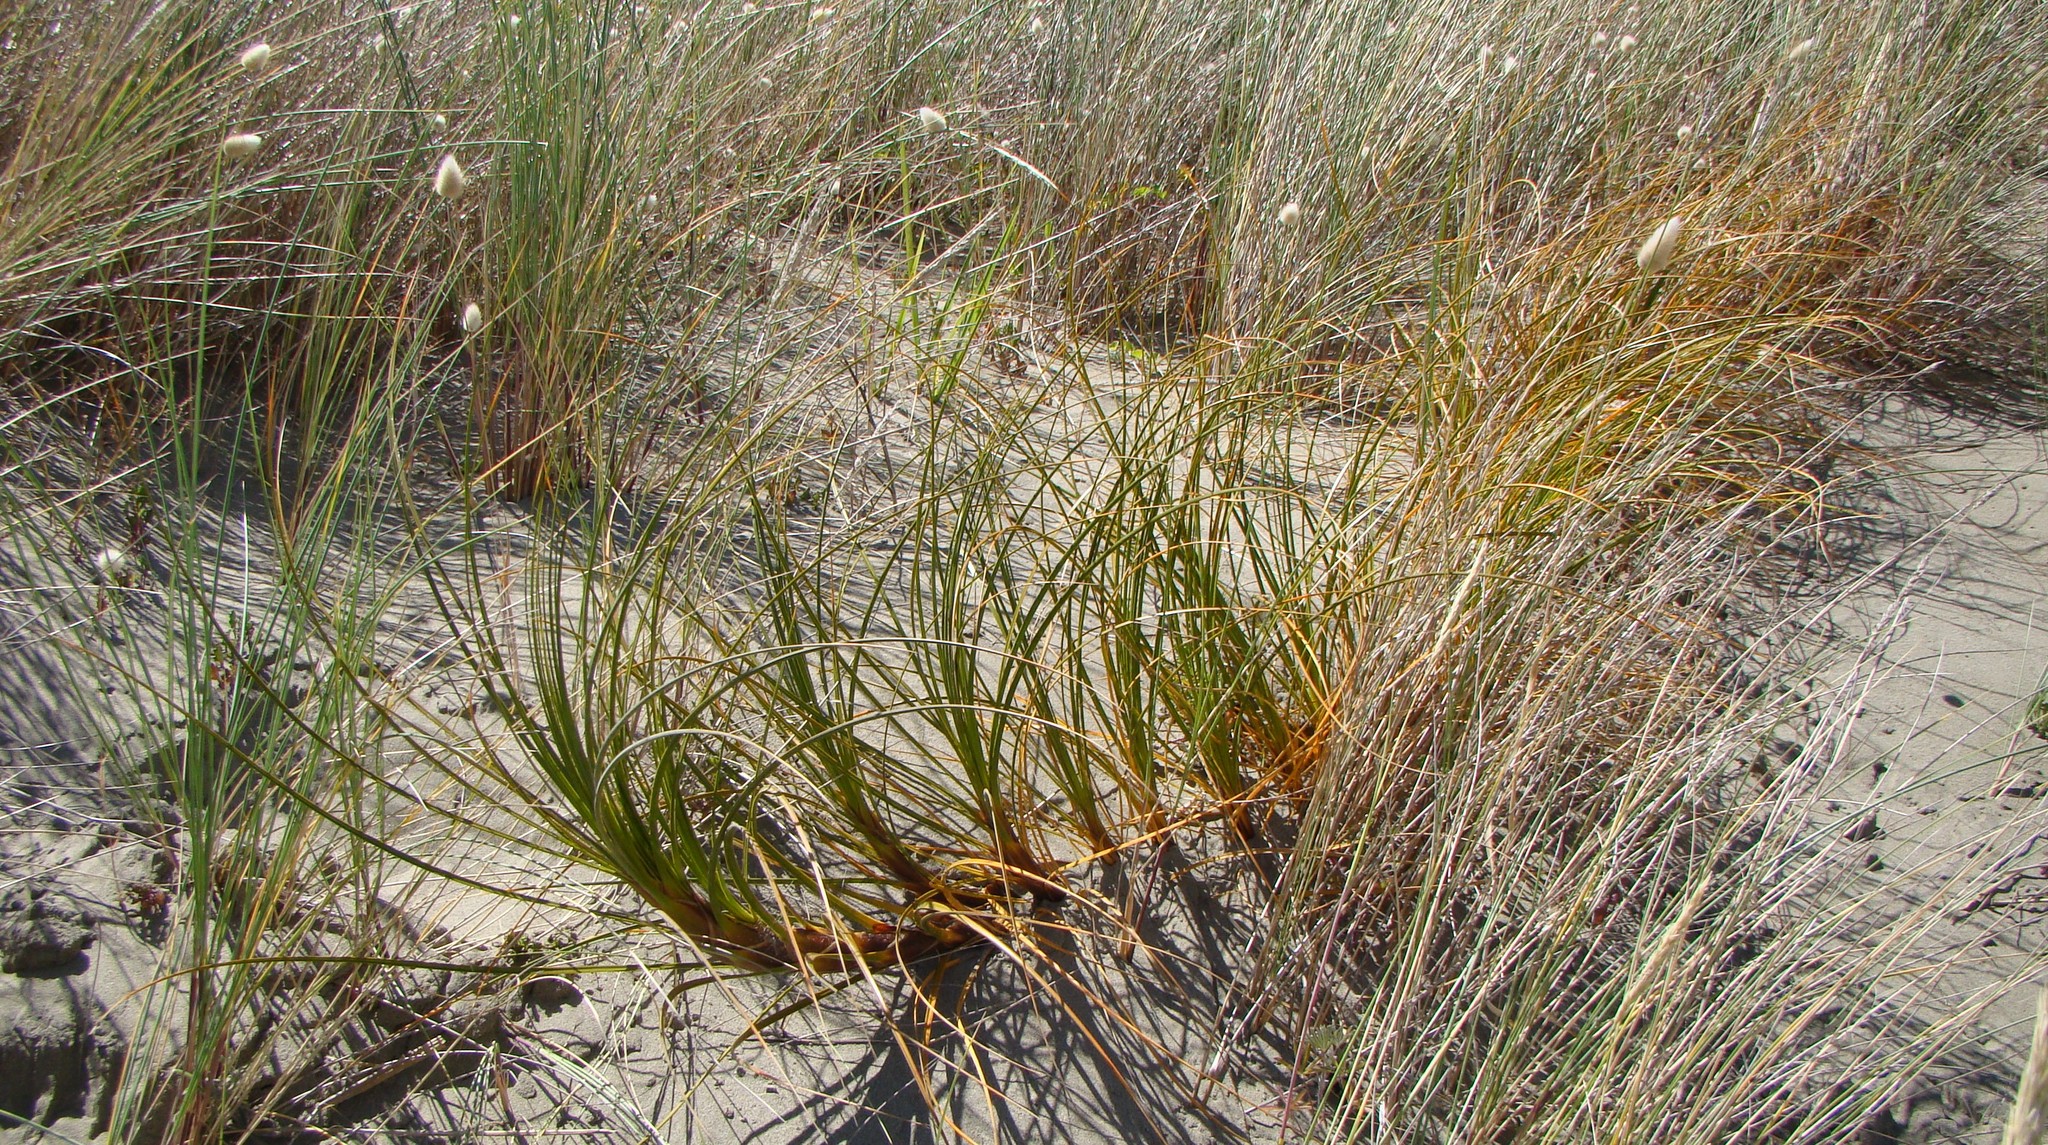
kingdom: Plantae
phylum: Tracheophyta
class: Liliopsida
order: Poales
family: Cyperaceae
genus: Ficinia
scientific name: Ficinia spiralis
